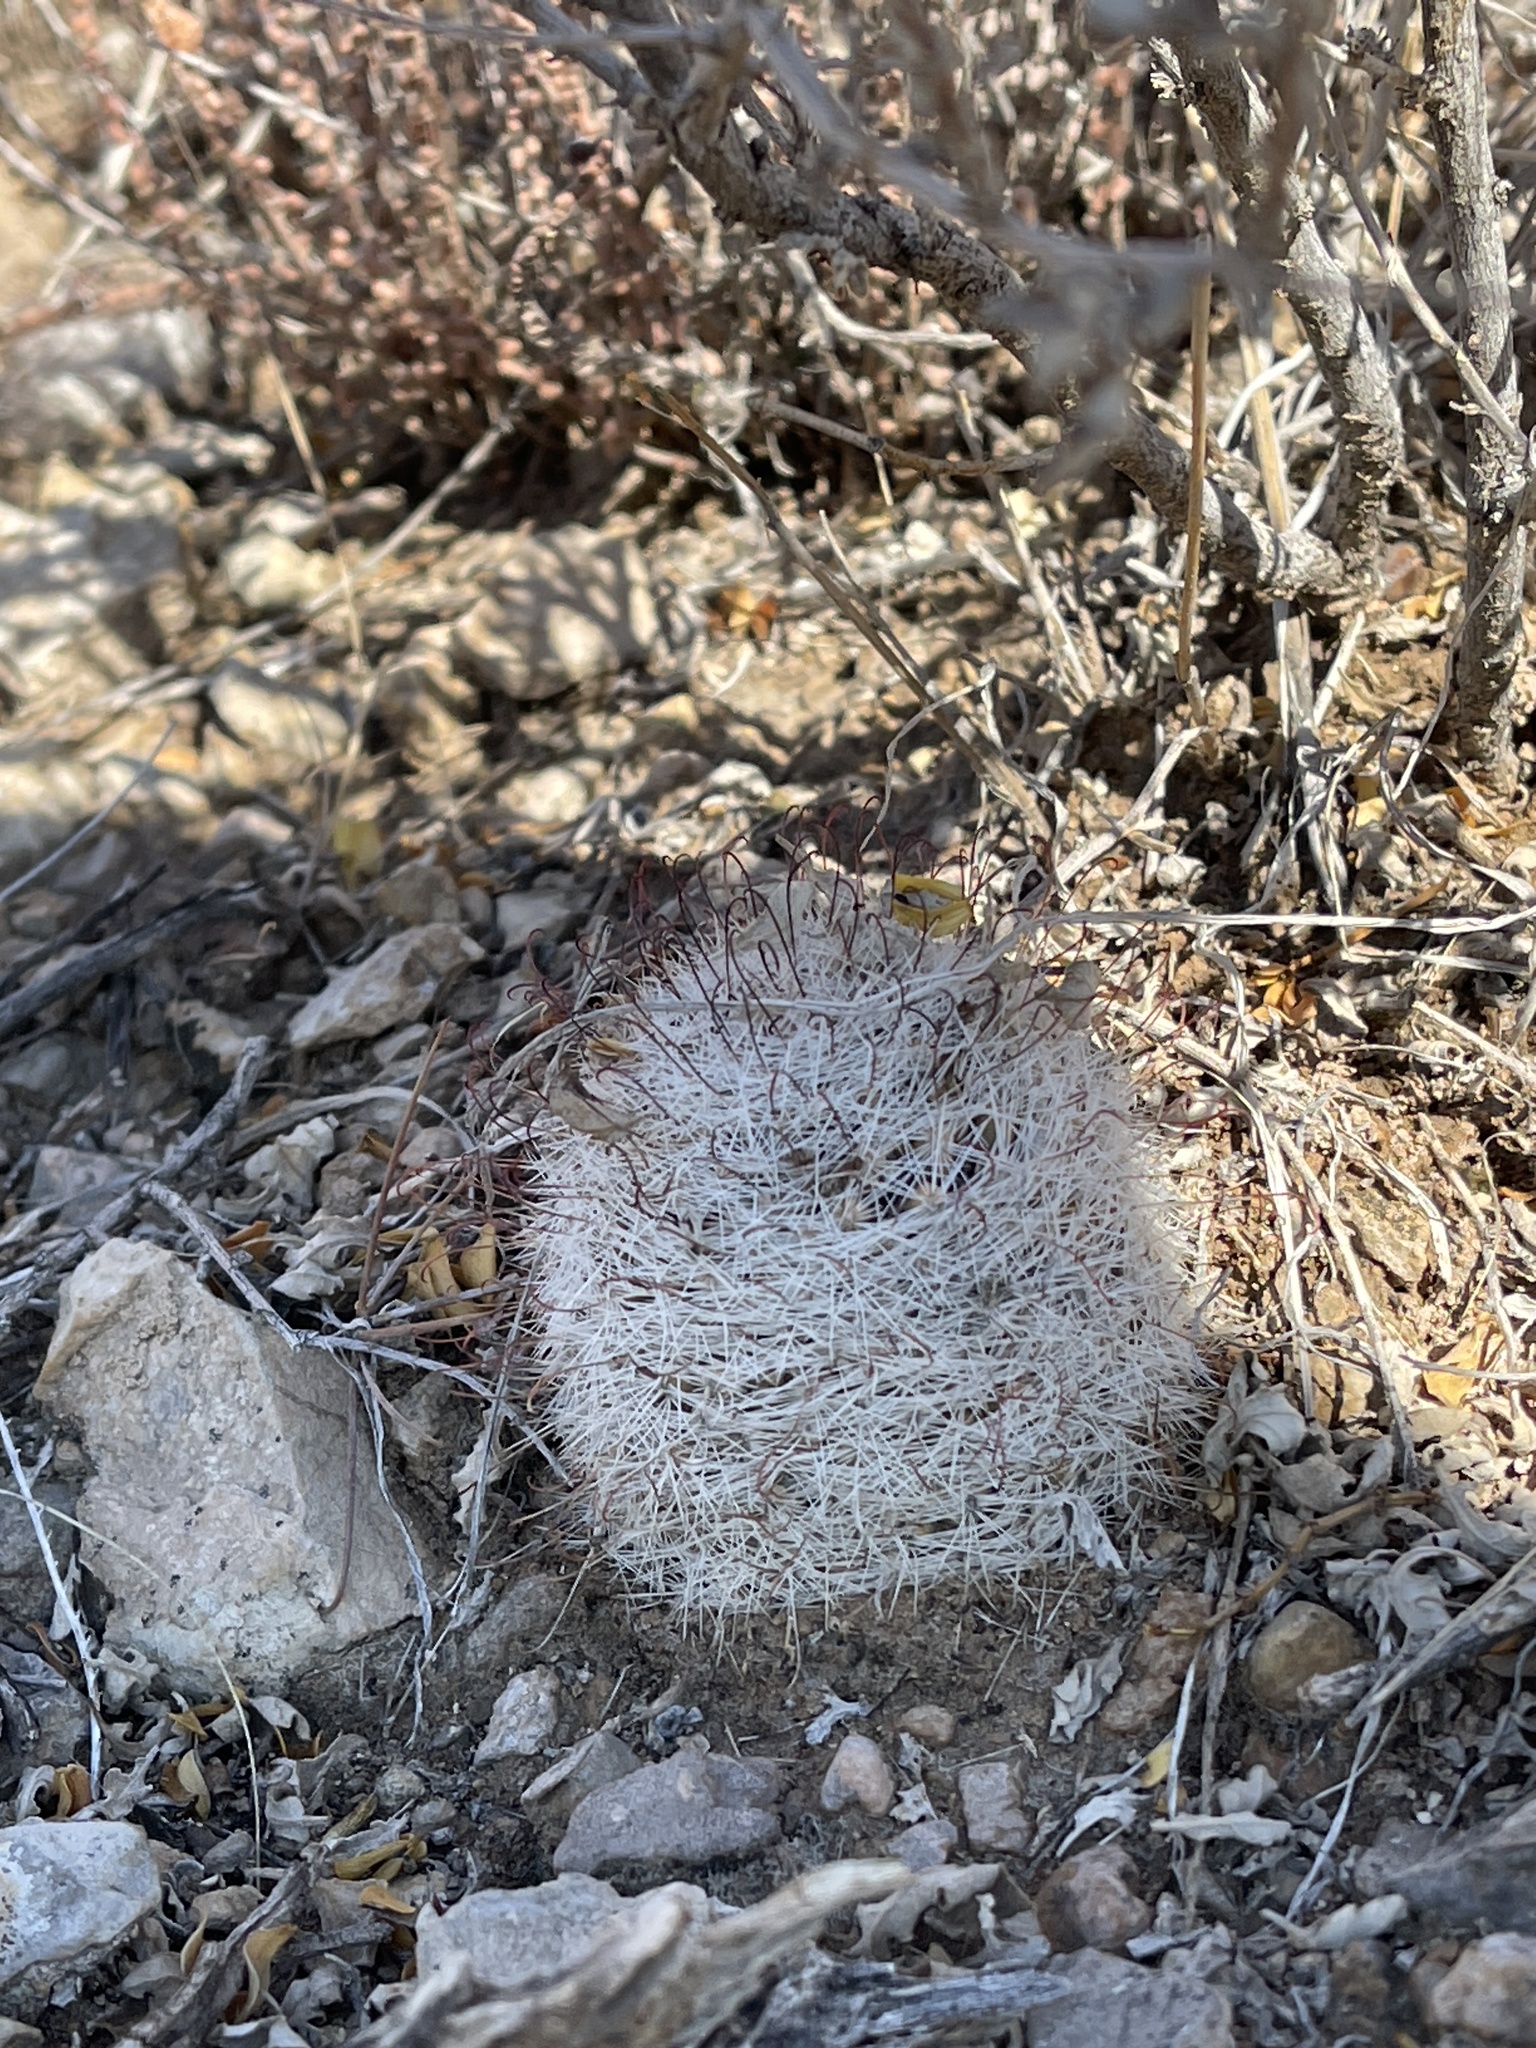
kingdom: Plantae
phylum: Tracheophyta
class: Magnoliopsida
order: Caryophyllales
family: Cactaceae
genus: Cochemiea
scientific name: Cochemiea grahamii
